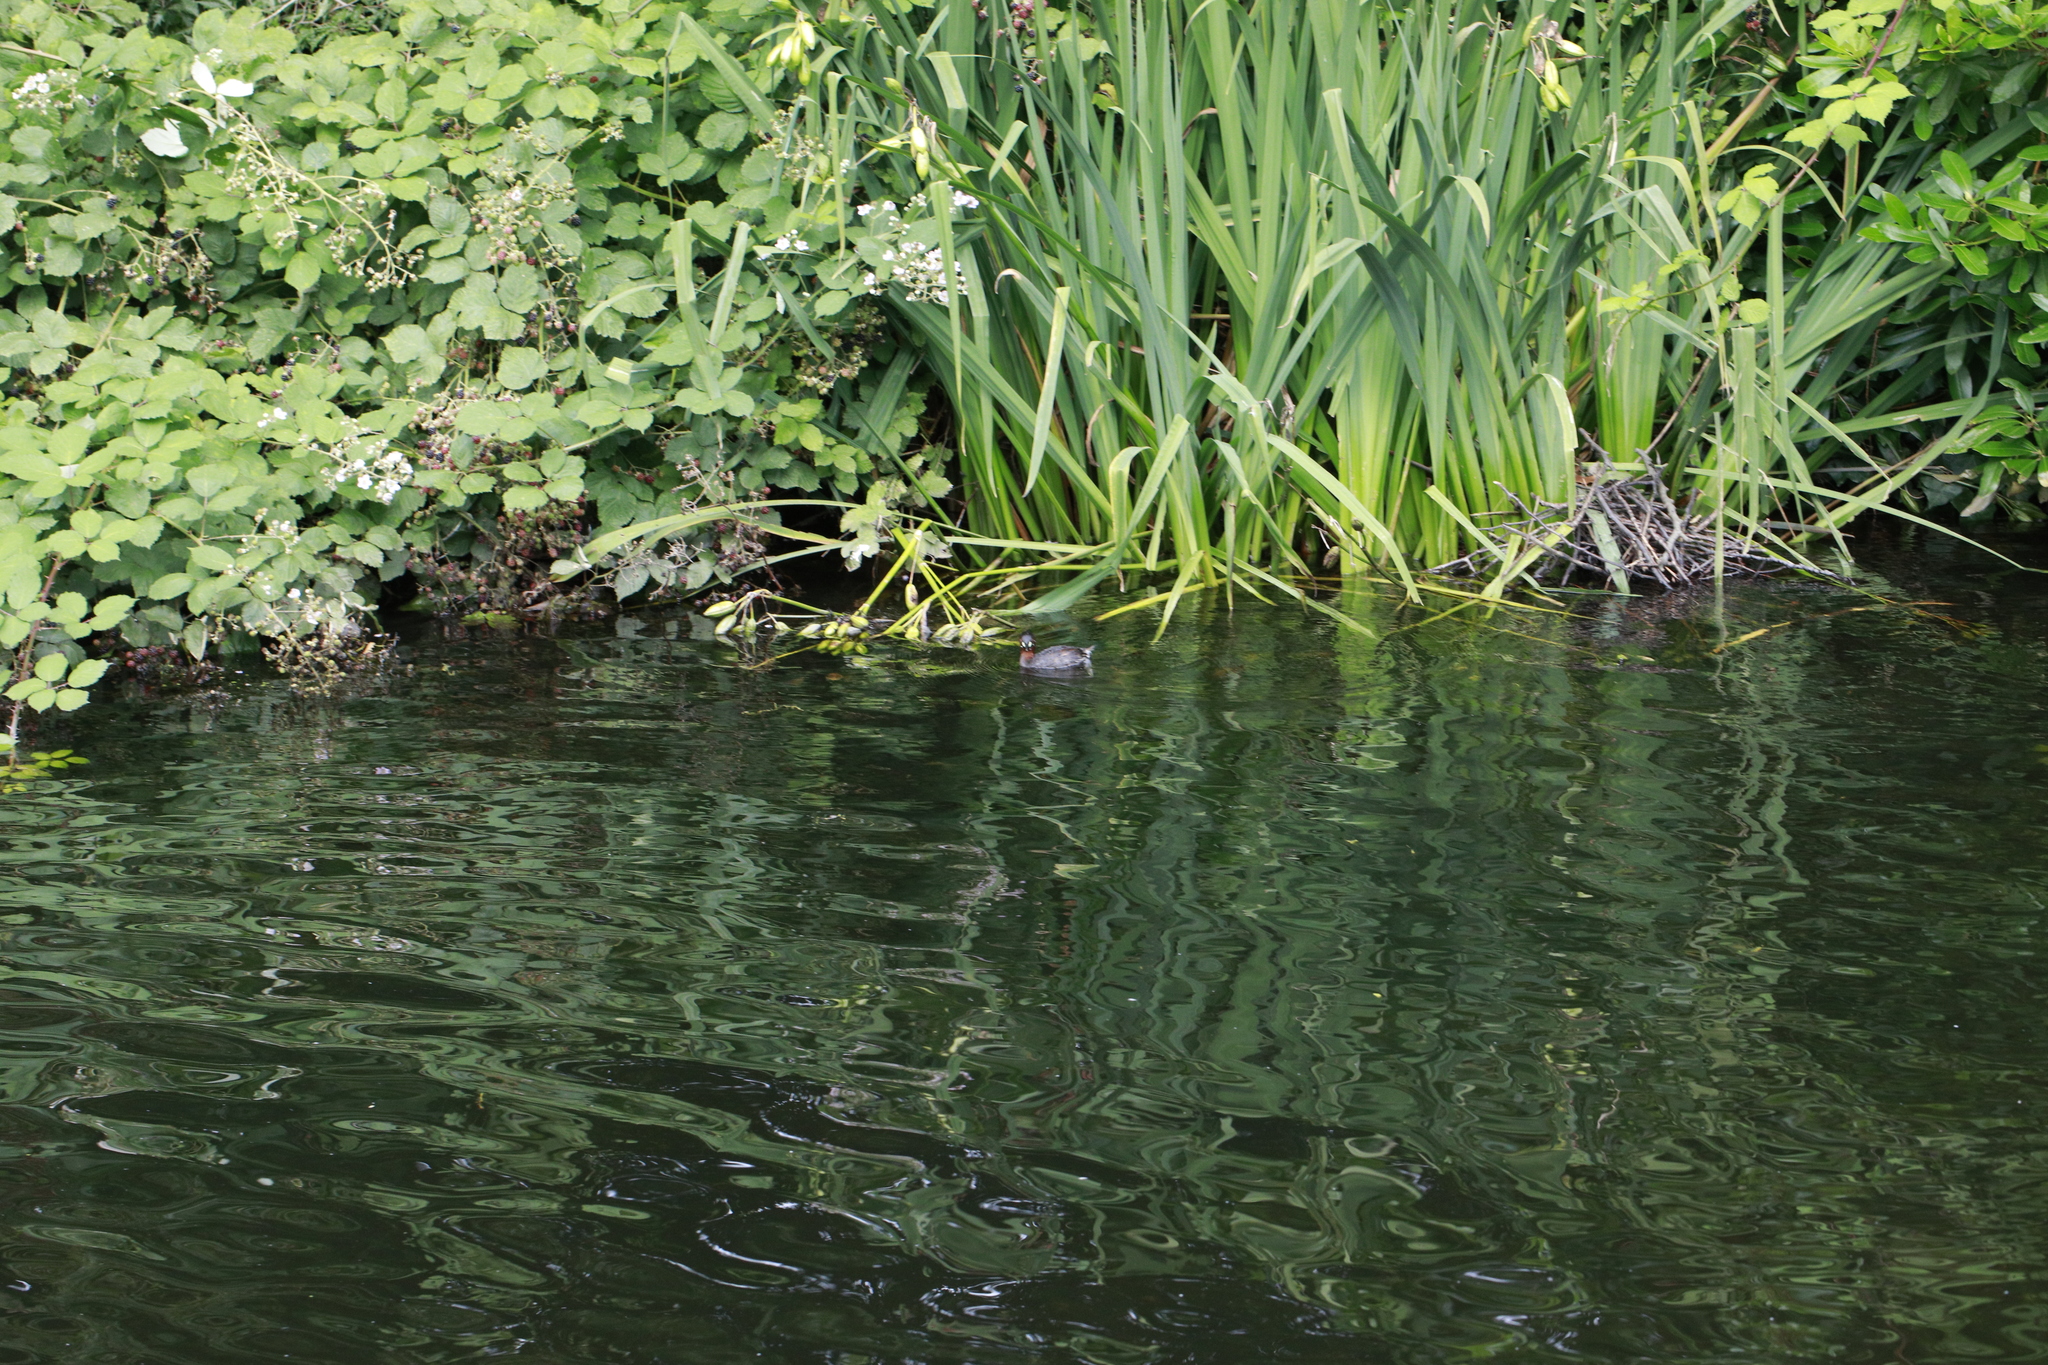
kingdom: Animalia
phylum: Chordata
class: Aves
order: Podicipediformes
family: Podicipedidae
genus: Tachybaptus
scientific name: Tachybaptus ruficollis
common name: Little grebe
